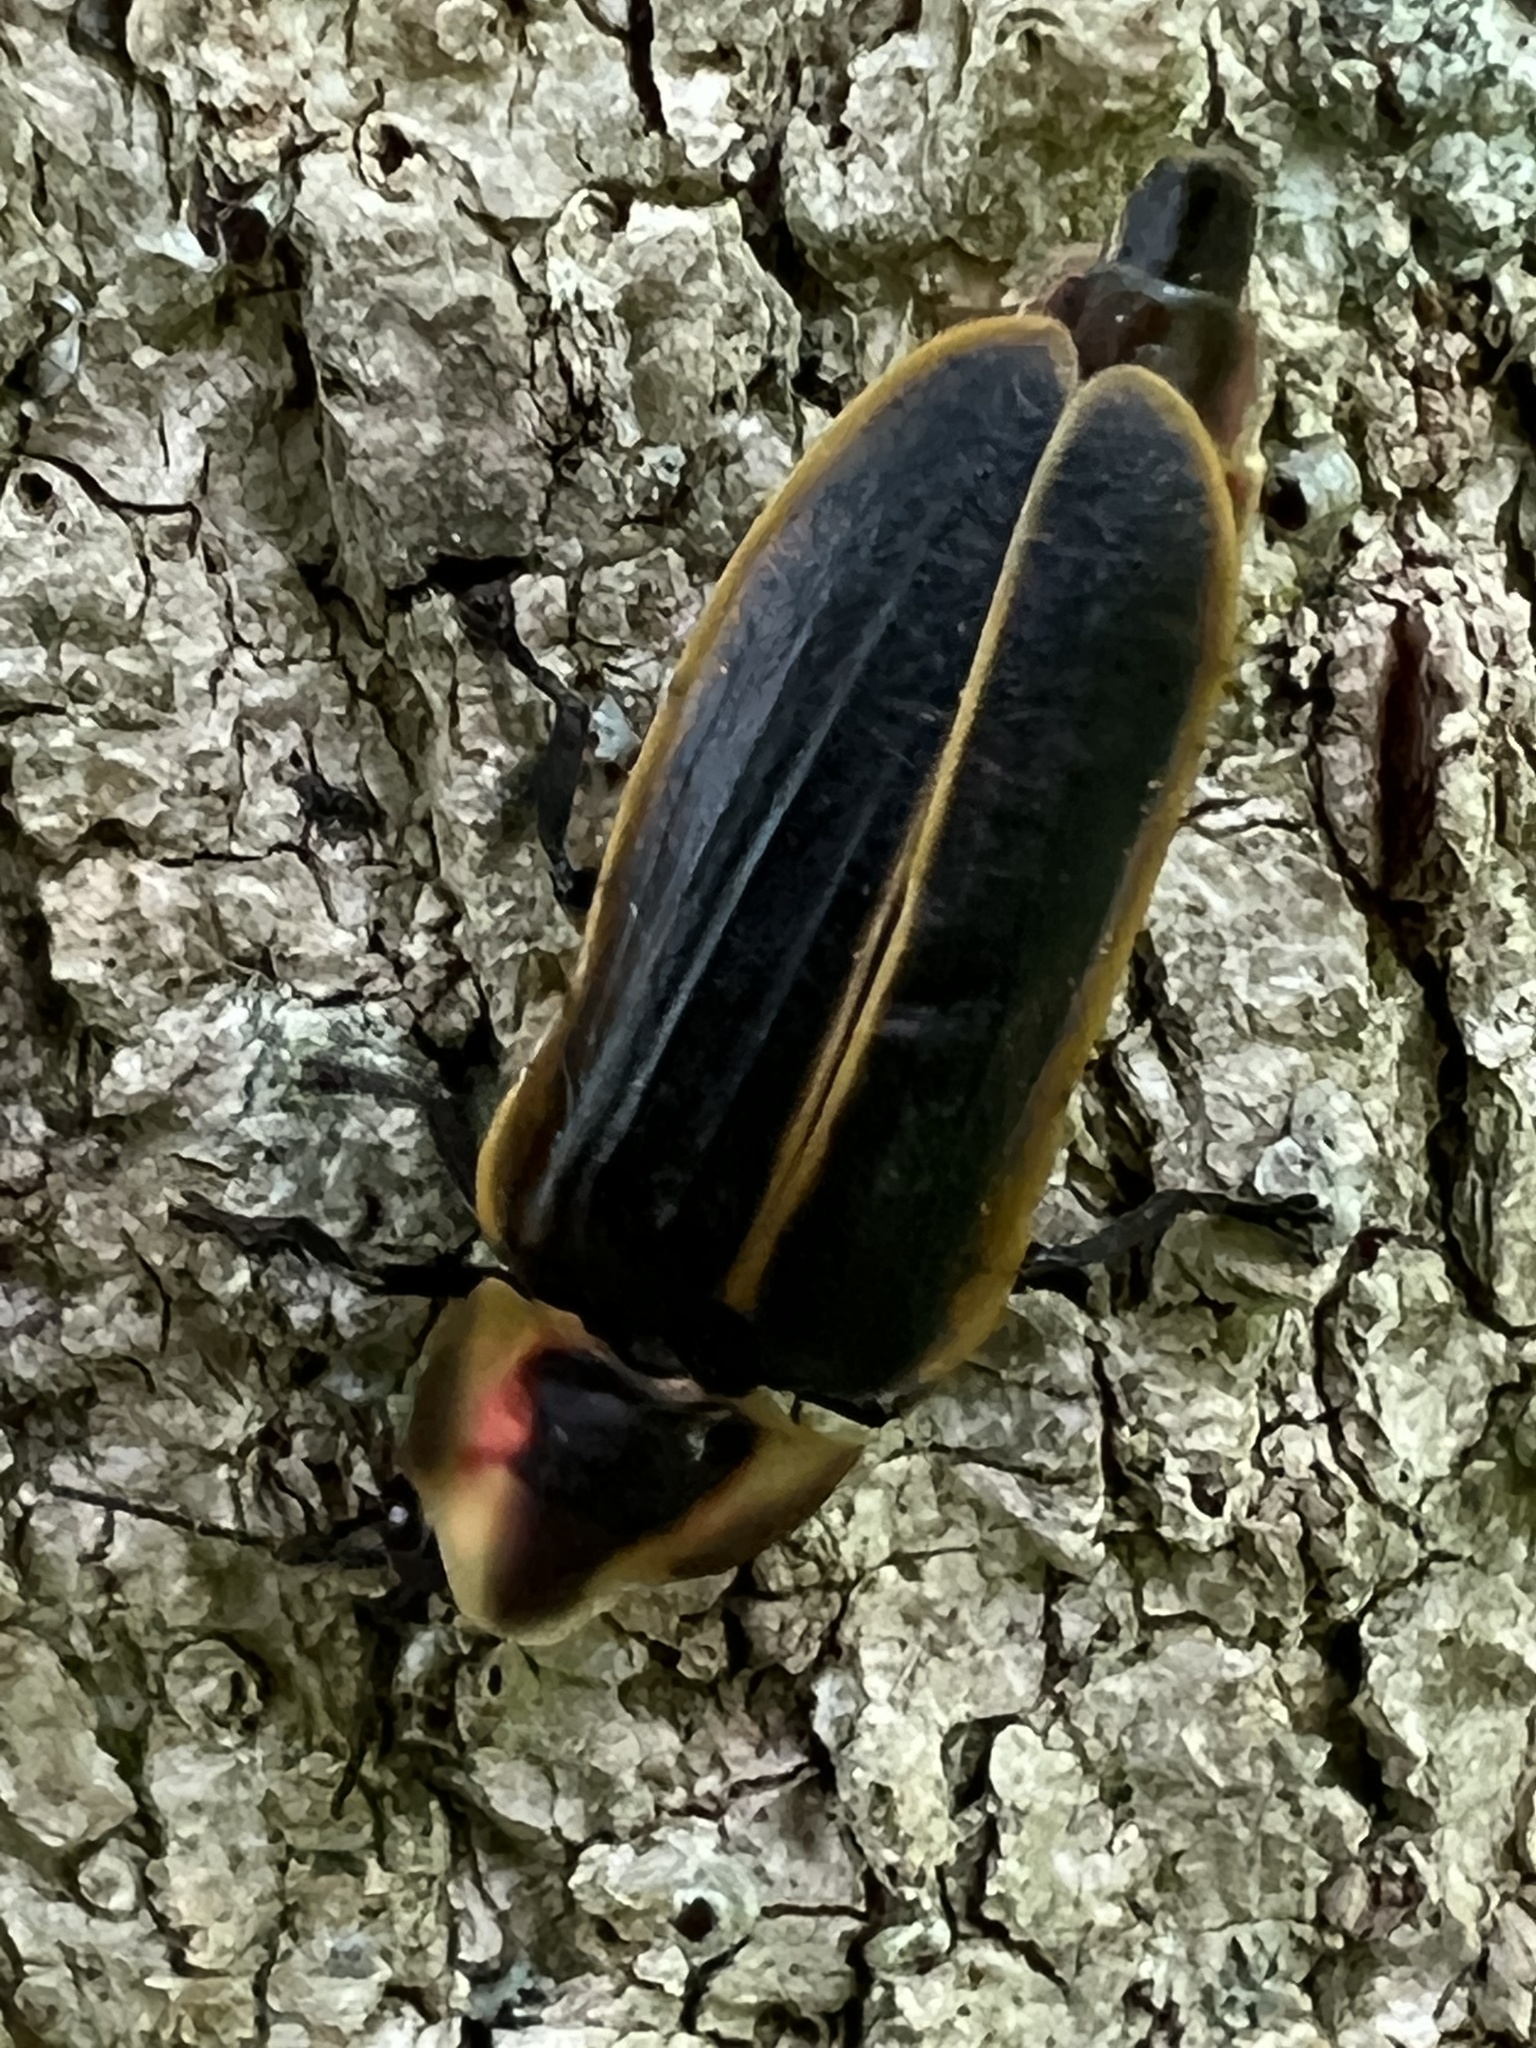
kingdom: Animalia
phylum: Arthropoda
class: Insecta
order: Coleoptera
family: Lampyridae
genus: Pyractomena
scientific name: Pyractomena borealis
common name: Northern firefly
